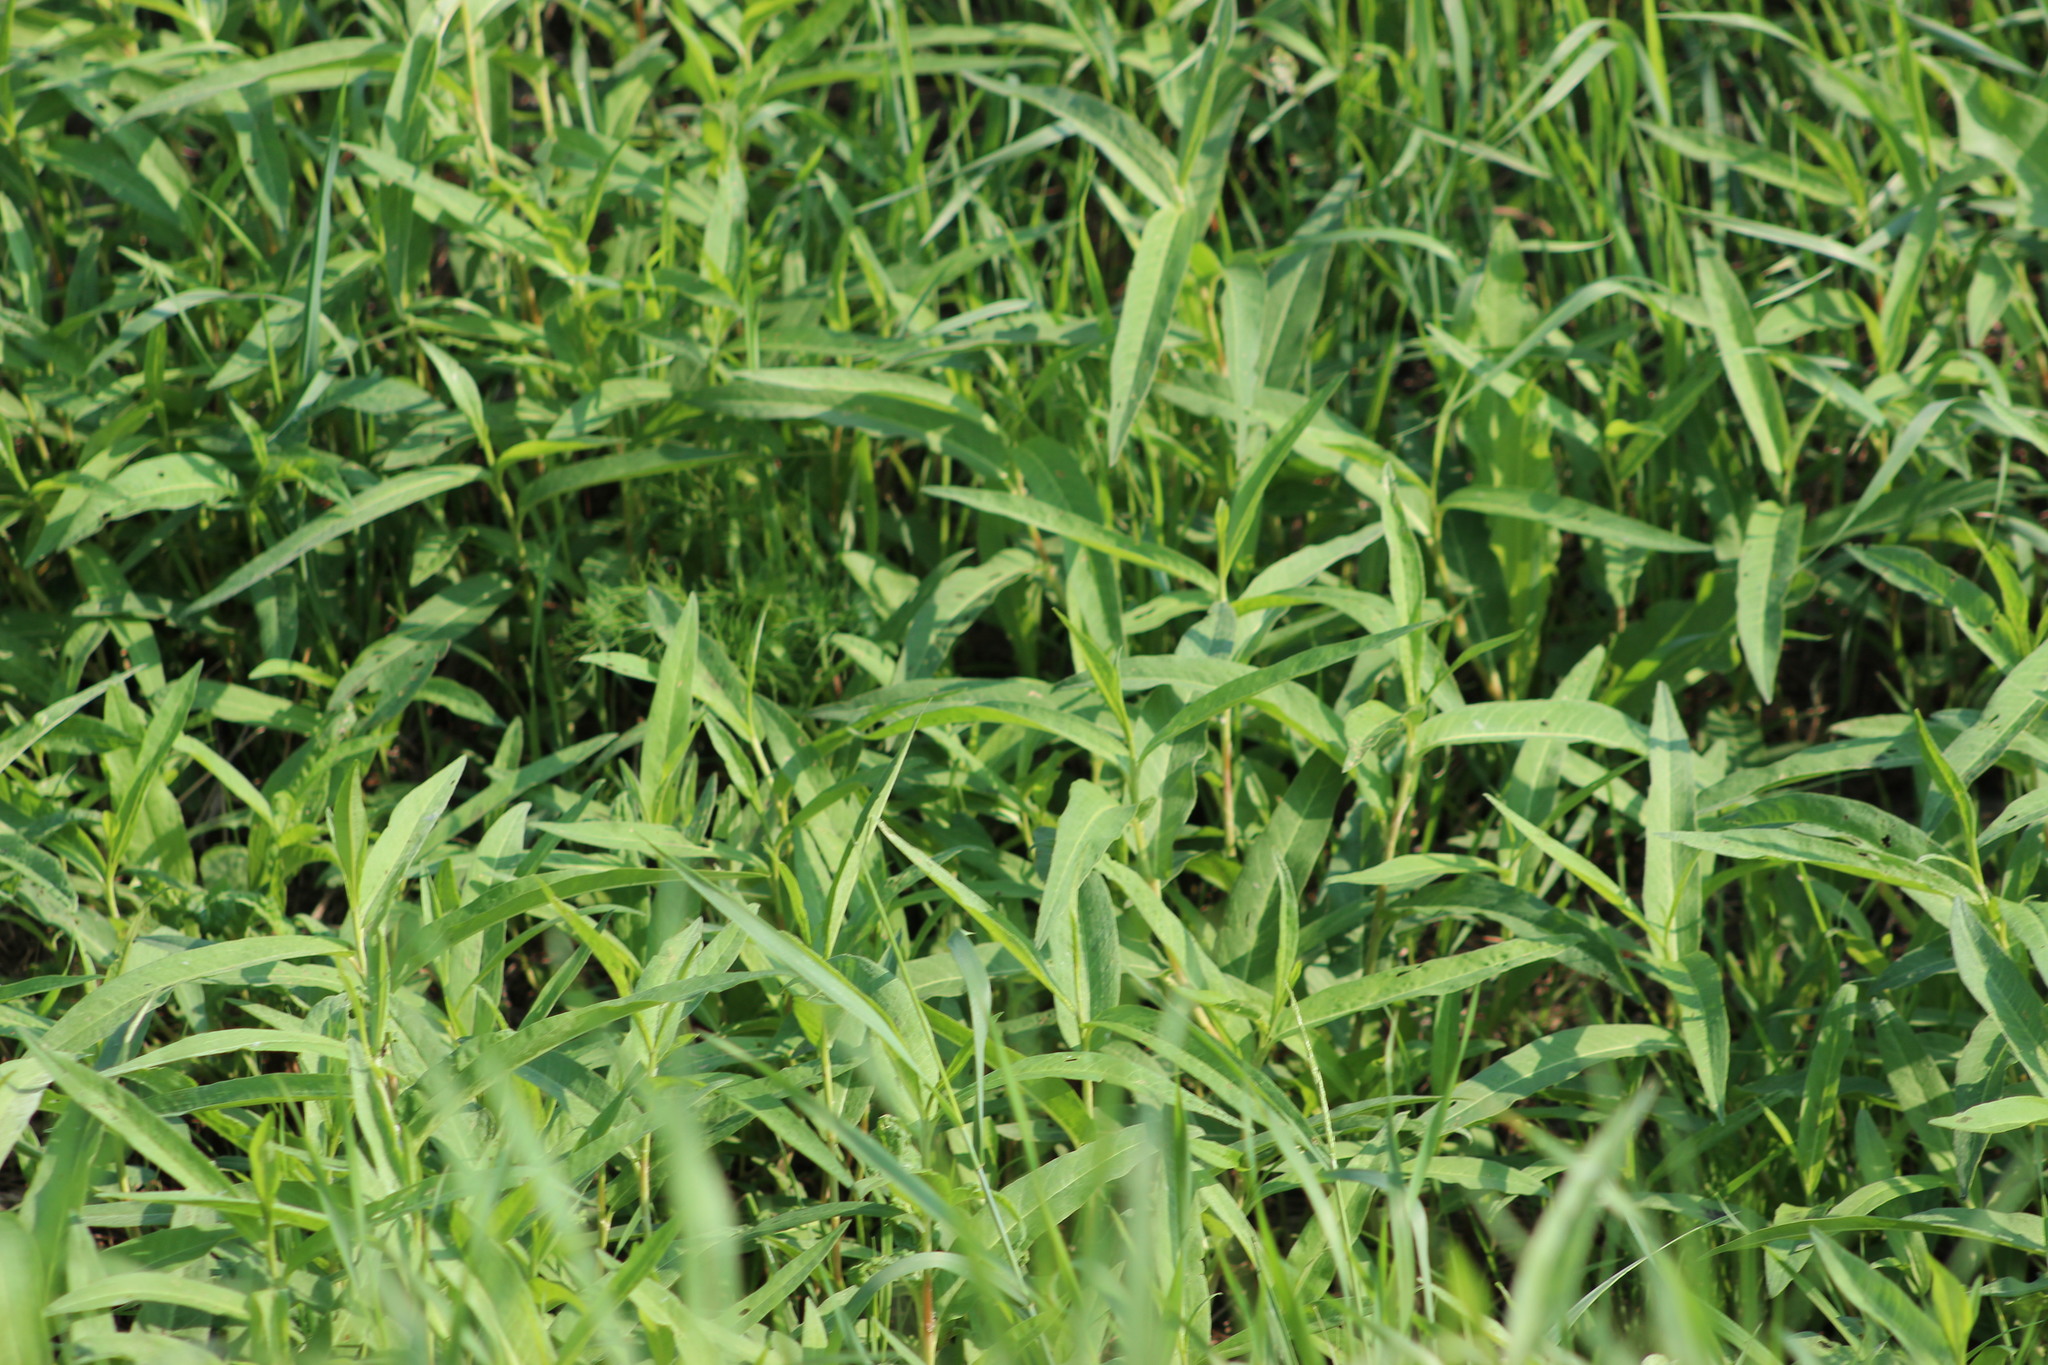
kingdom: Plantae
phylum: Tracheophyta
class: Magnoliopsida
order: Caryophyllales
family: Polygonaceae
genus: Persicaria
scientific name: Persicaria amphibia
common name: Amphibious bistort
